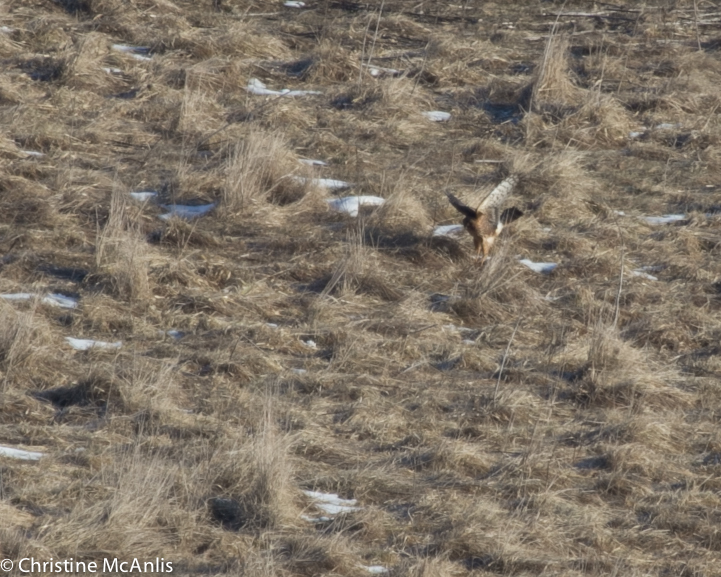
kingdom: Animalia
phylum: Chordata
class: Aves
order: Accipitriformes
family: Accipitridae
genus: Circus
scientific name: Circus cyaneus
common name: Hen harrier
